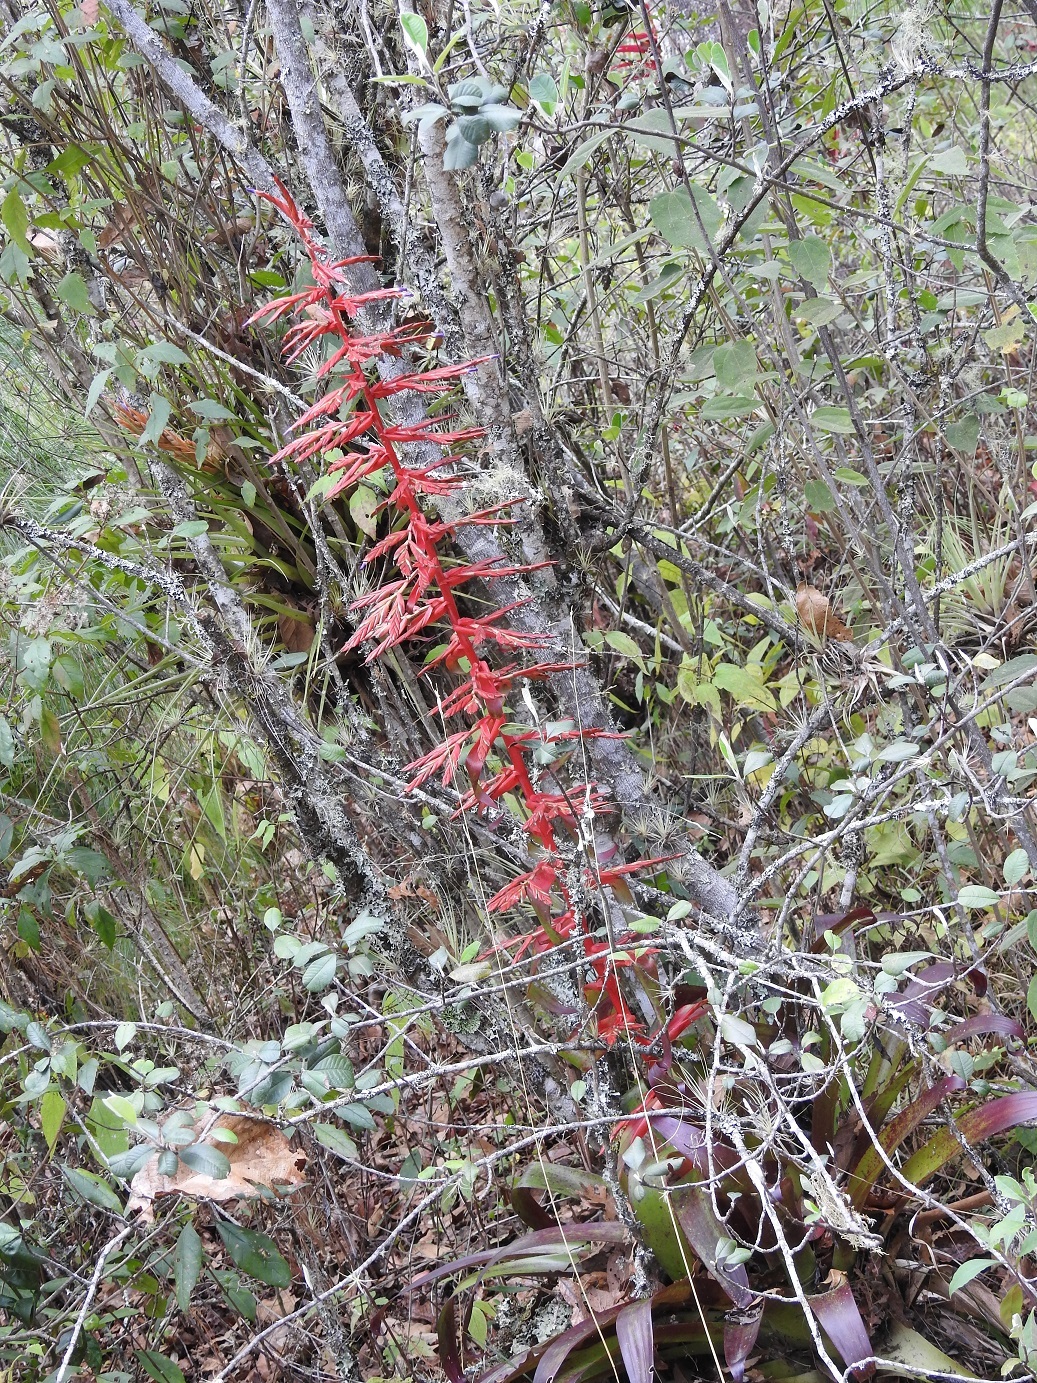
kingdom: Plantae
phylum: Tracheophyta
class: Liliopsida
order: Poales
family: Bromeliaceae
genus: Tillandsia
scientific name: Tillandsia guatemalensis
